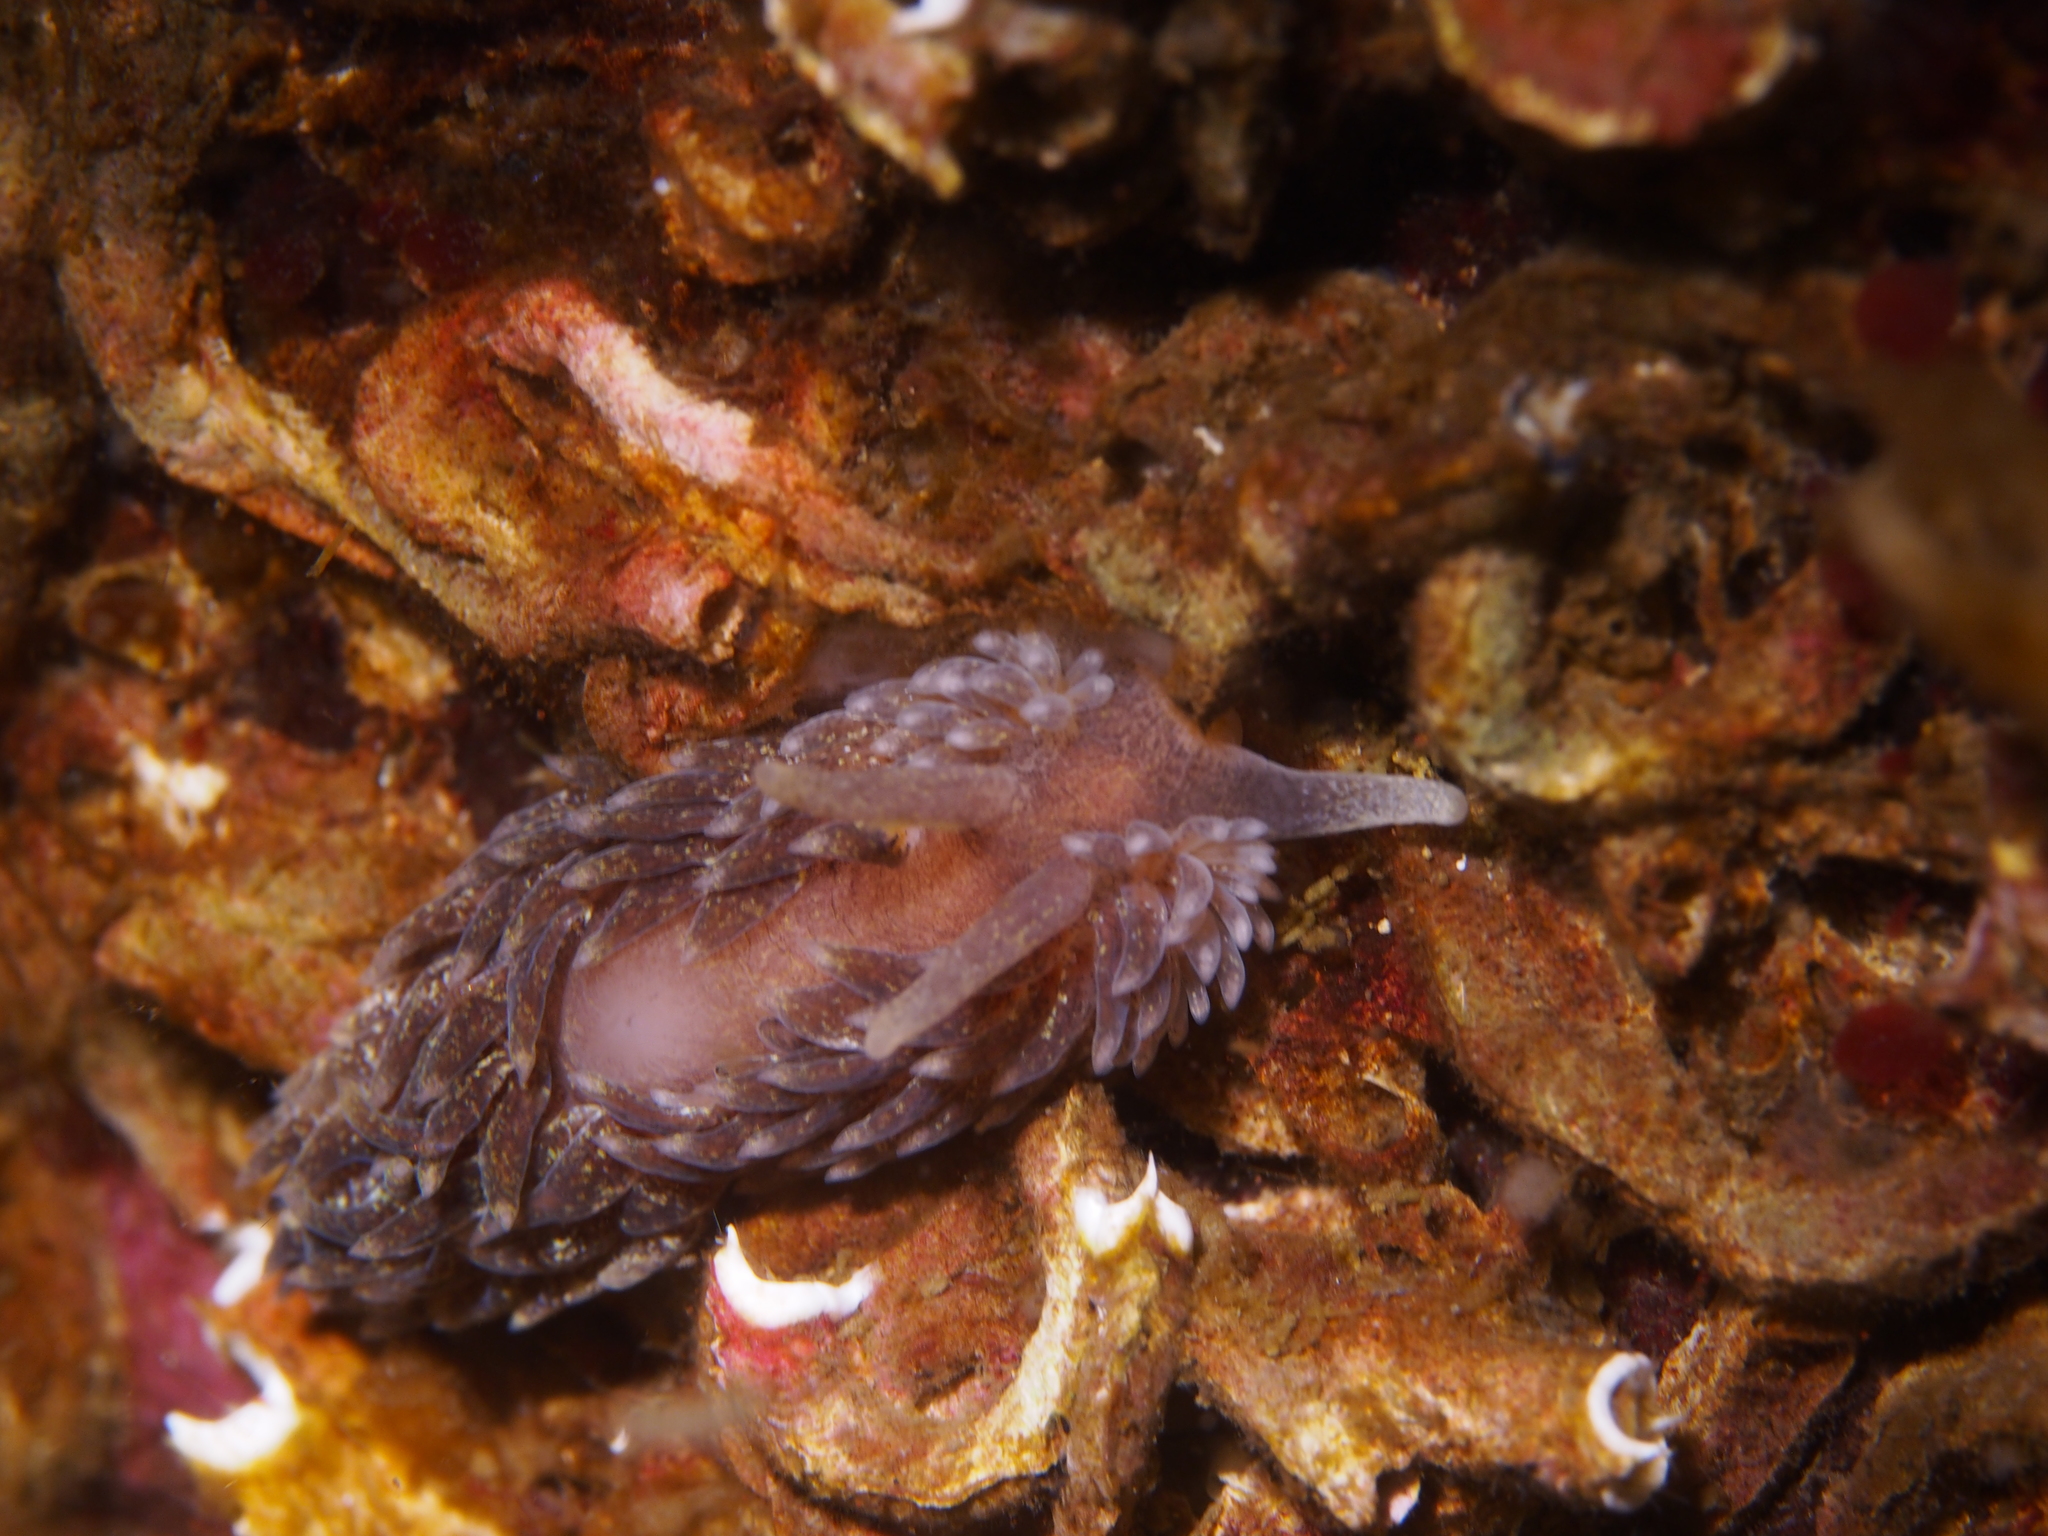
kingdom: Animalia
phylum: Mollusca
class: Gastropoda
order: Nudibranchia
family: Aeolidiidae
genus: Aeolidia
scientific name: Aeolidia papillosa
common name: Common grey sea slug
